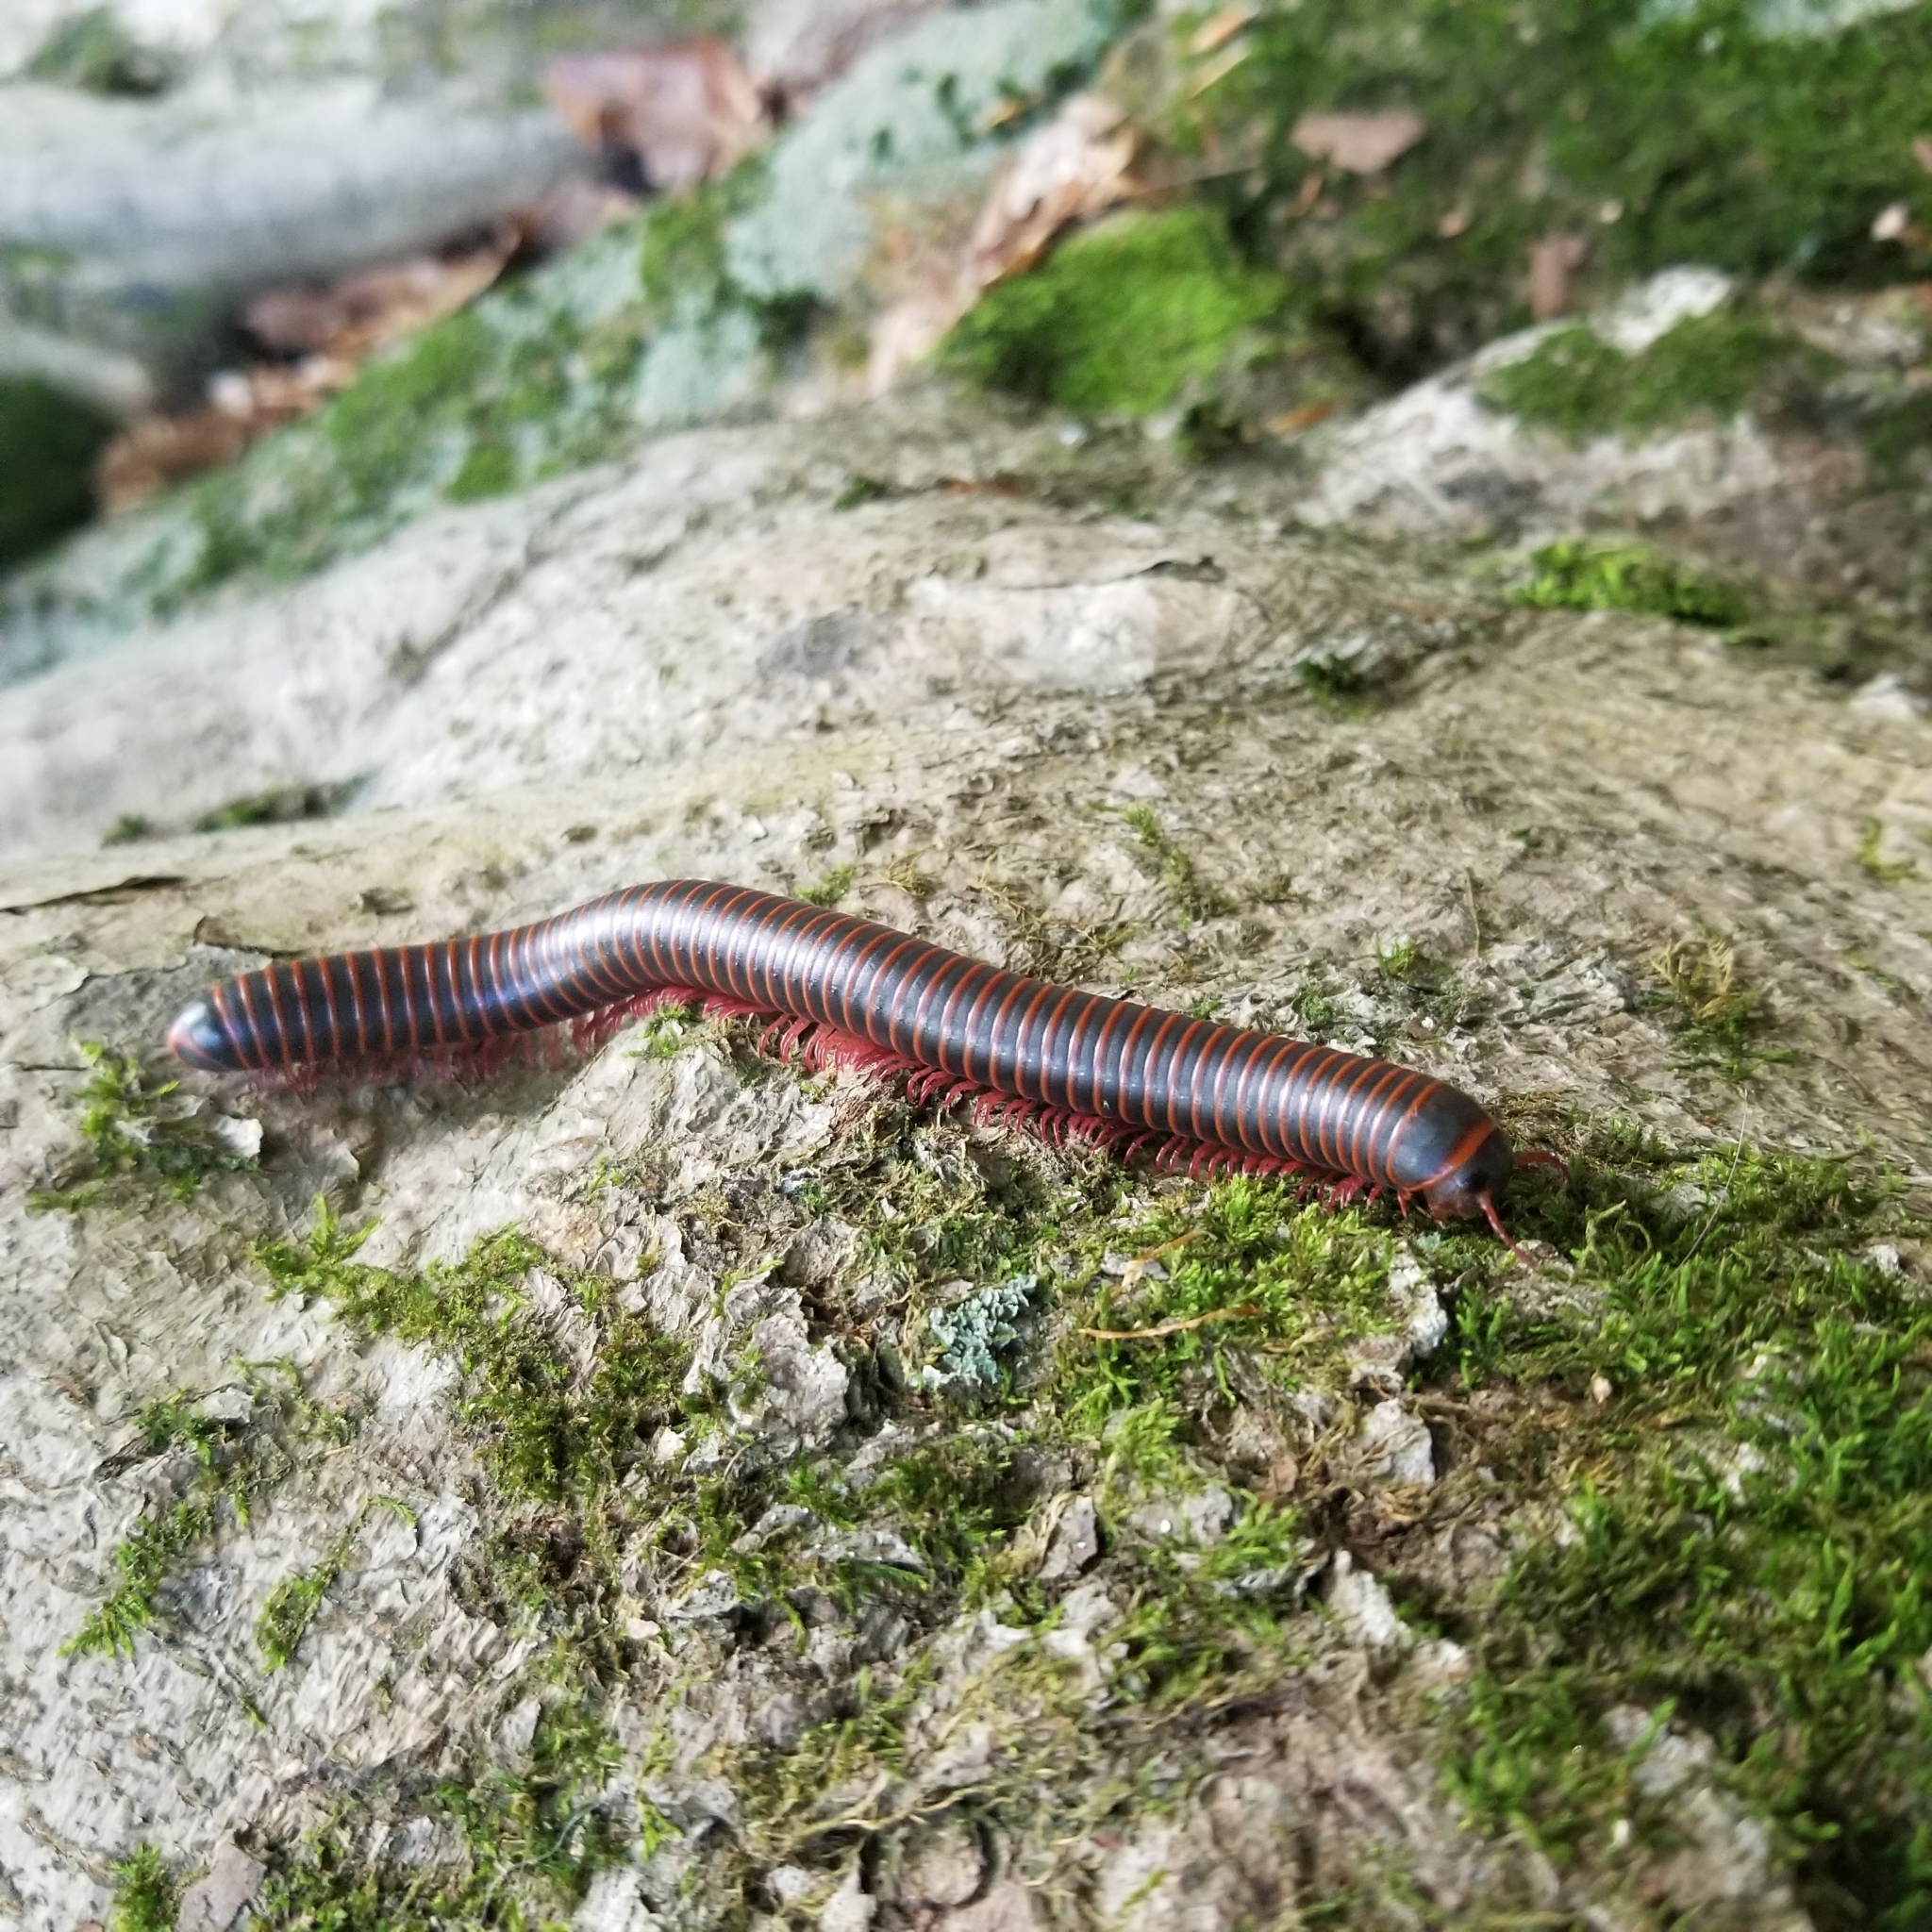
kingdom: Animalia
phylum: Arthropoda
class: Diplopoda
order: Spirobolida
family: Spirobolidae
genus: Narceus
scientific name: Narceus
